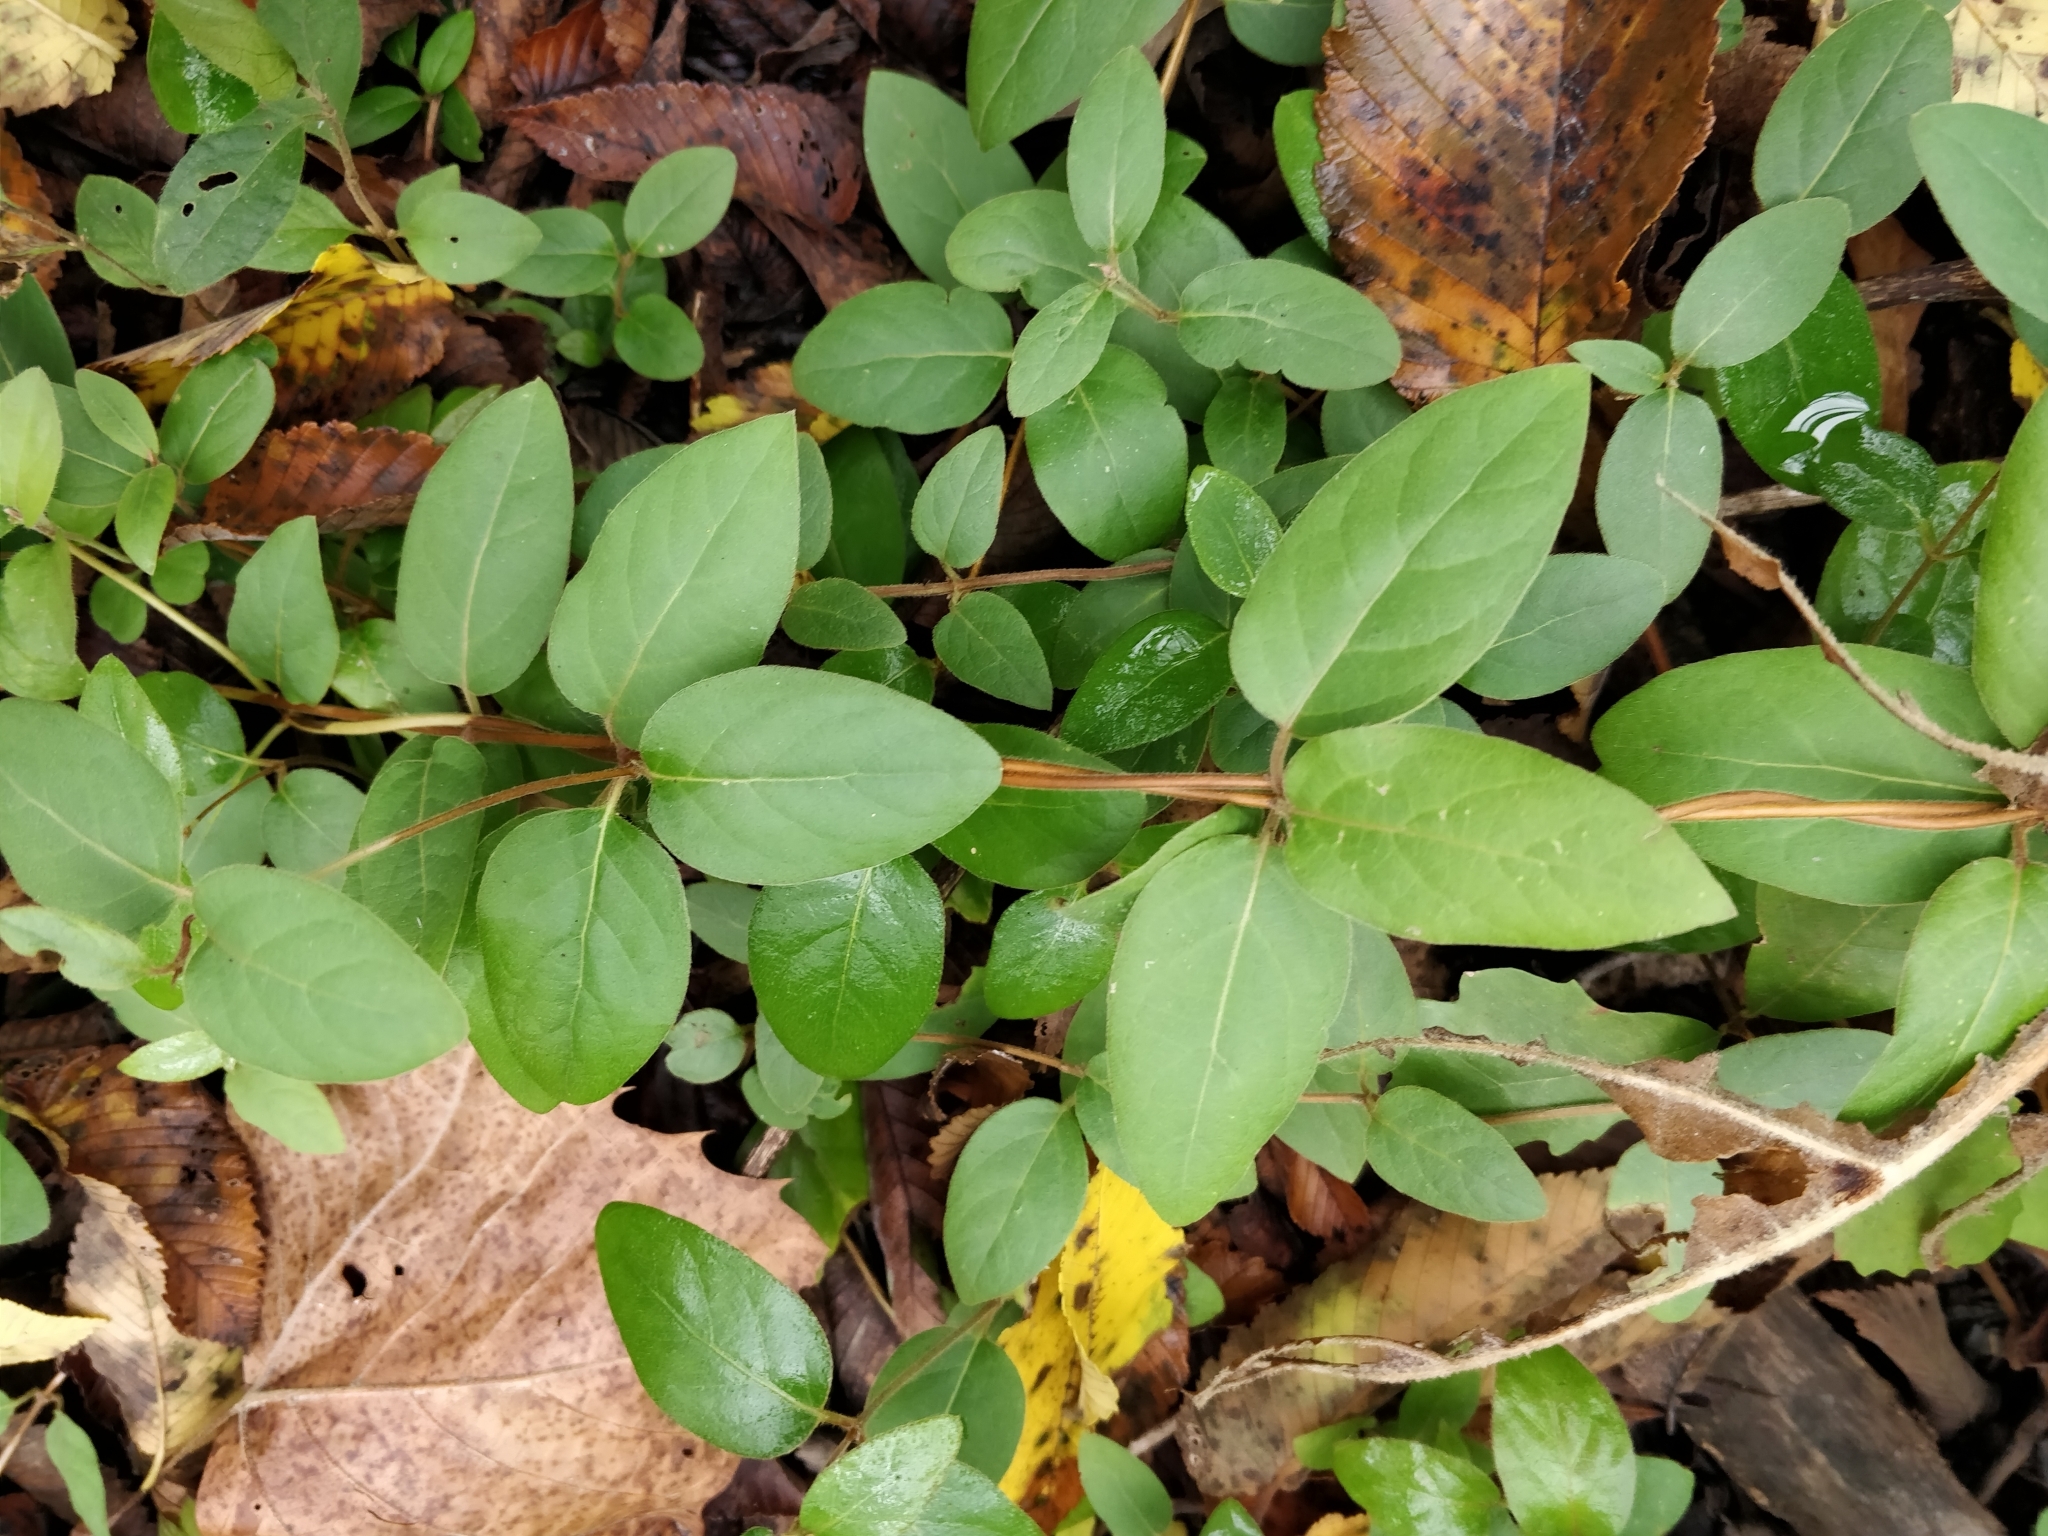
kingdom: Plantae
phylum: Tracheophyta
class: Magnoliopsida
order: Dipsacales
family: Caprifoliaceae
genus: Lonicera
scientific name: Lonicera japonica
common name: Japanese honeysuckle
